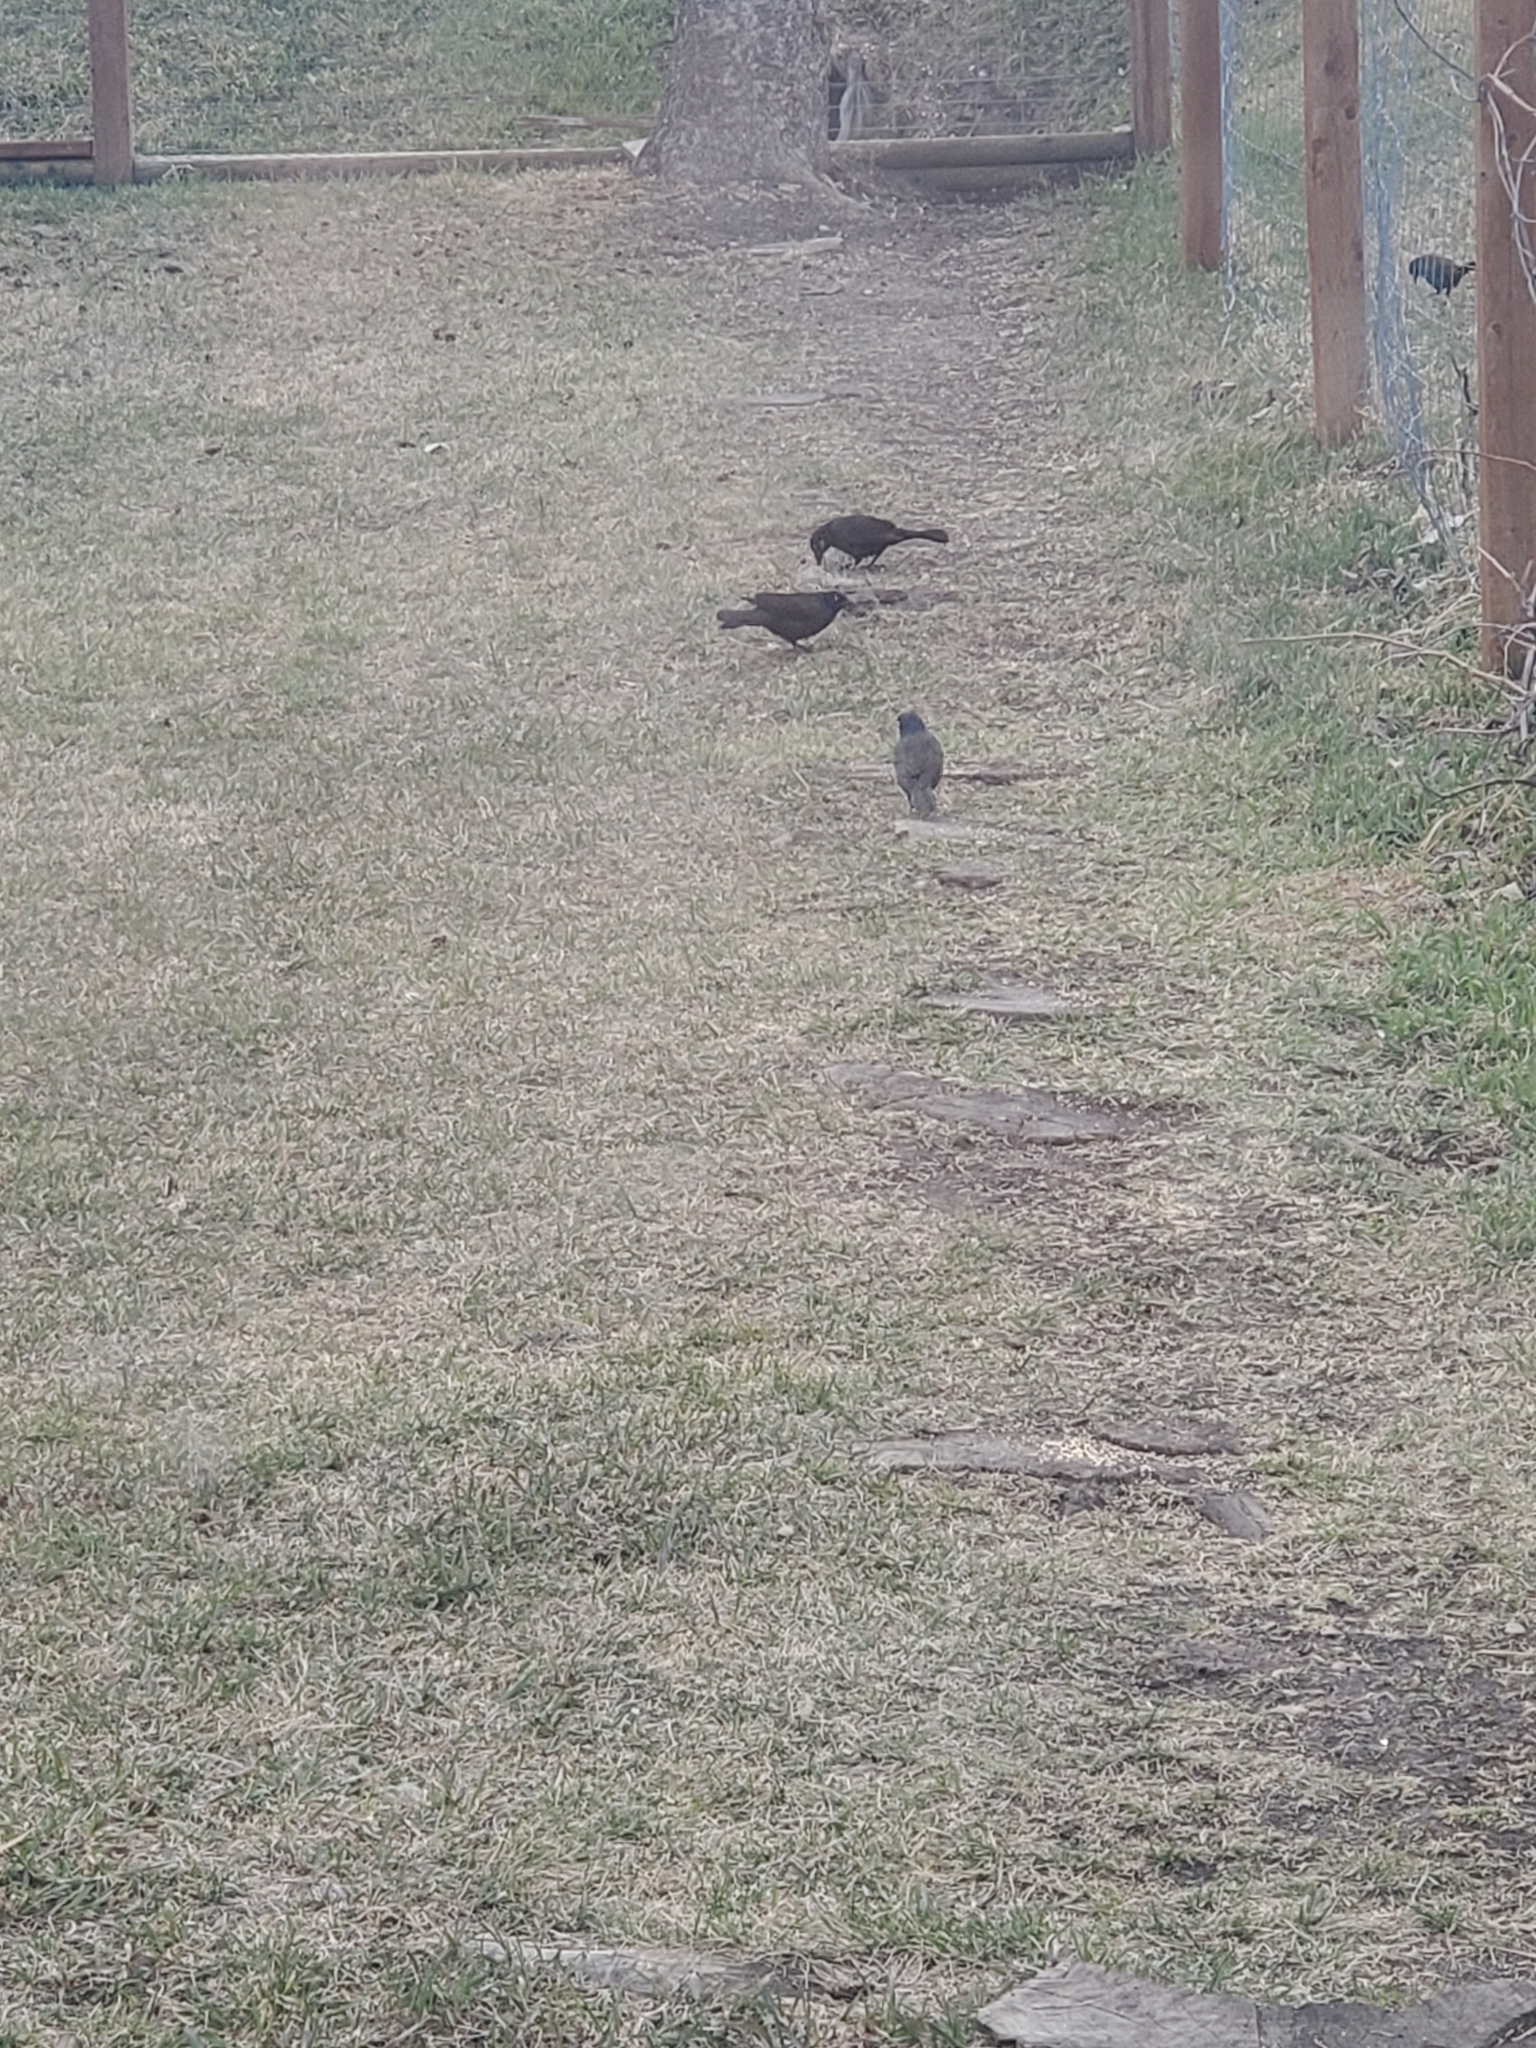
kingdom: Animalia
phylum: Chordata
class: Aves
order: Passeriformes
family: Icteridae
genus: Quiscalus
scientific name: Quiscalus quiscula
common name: Common grackle
